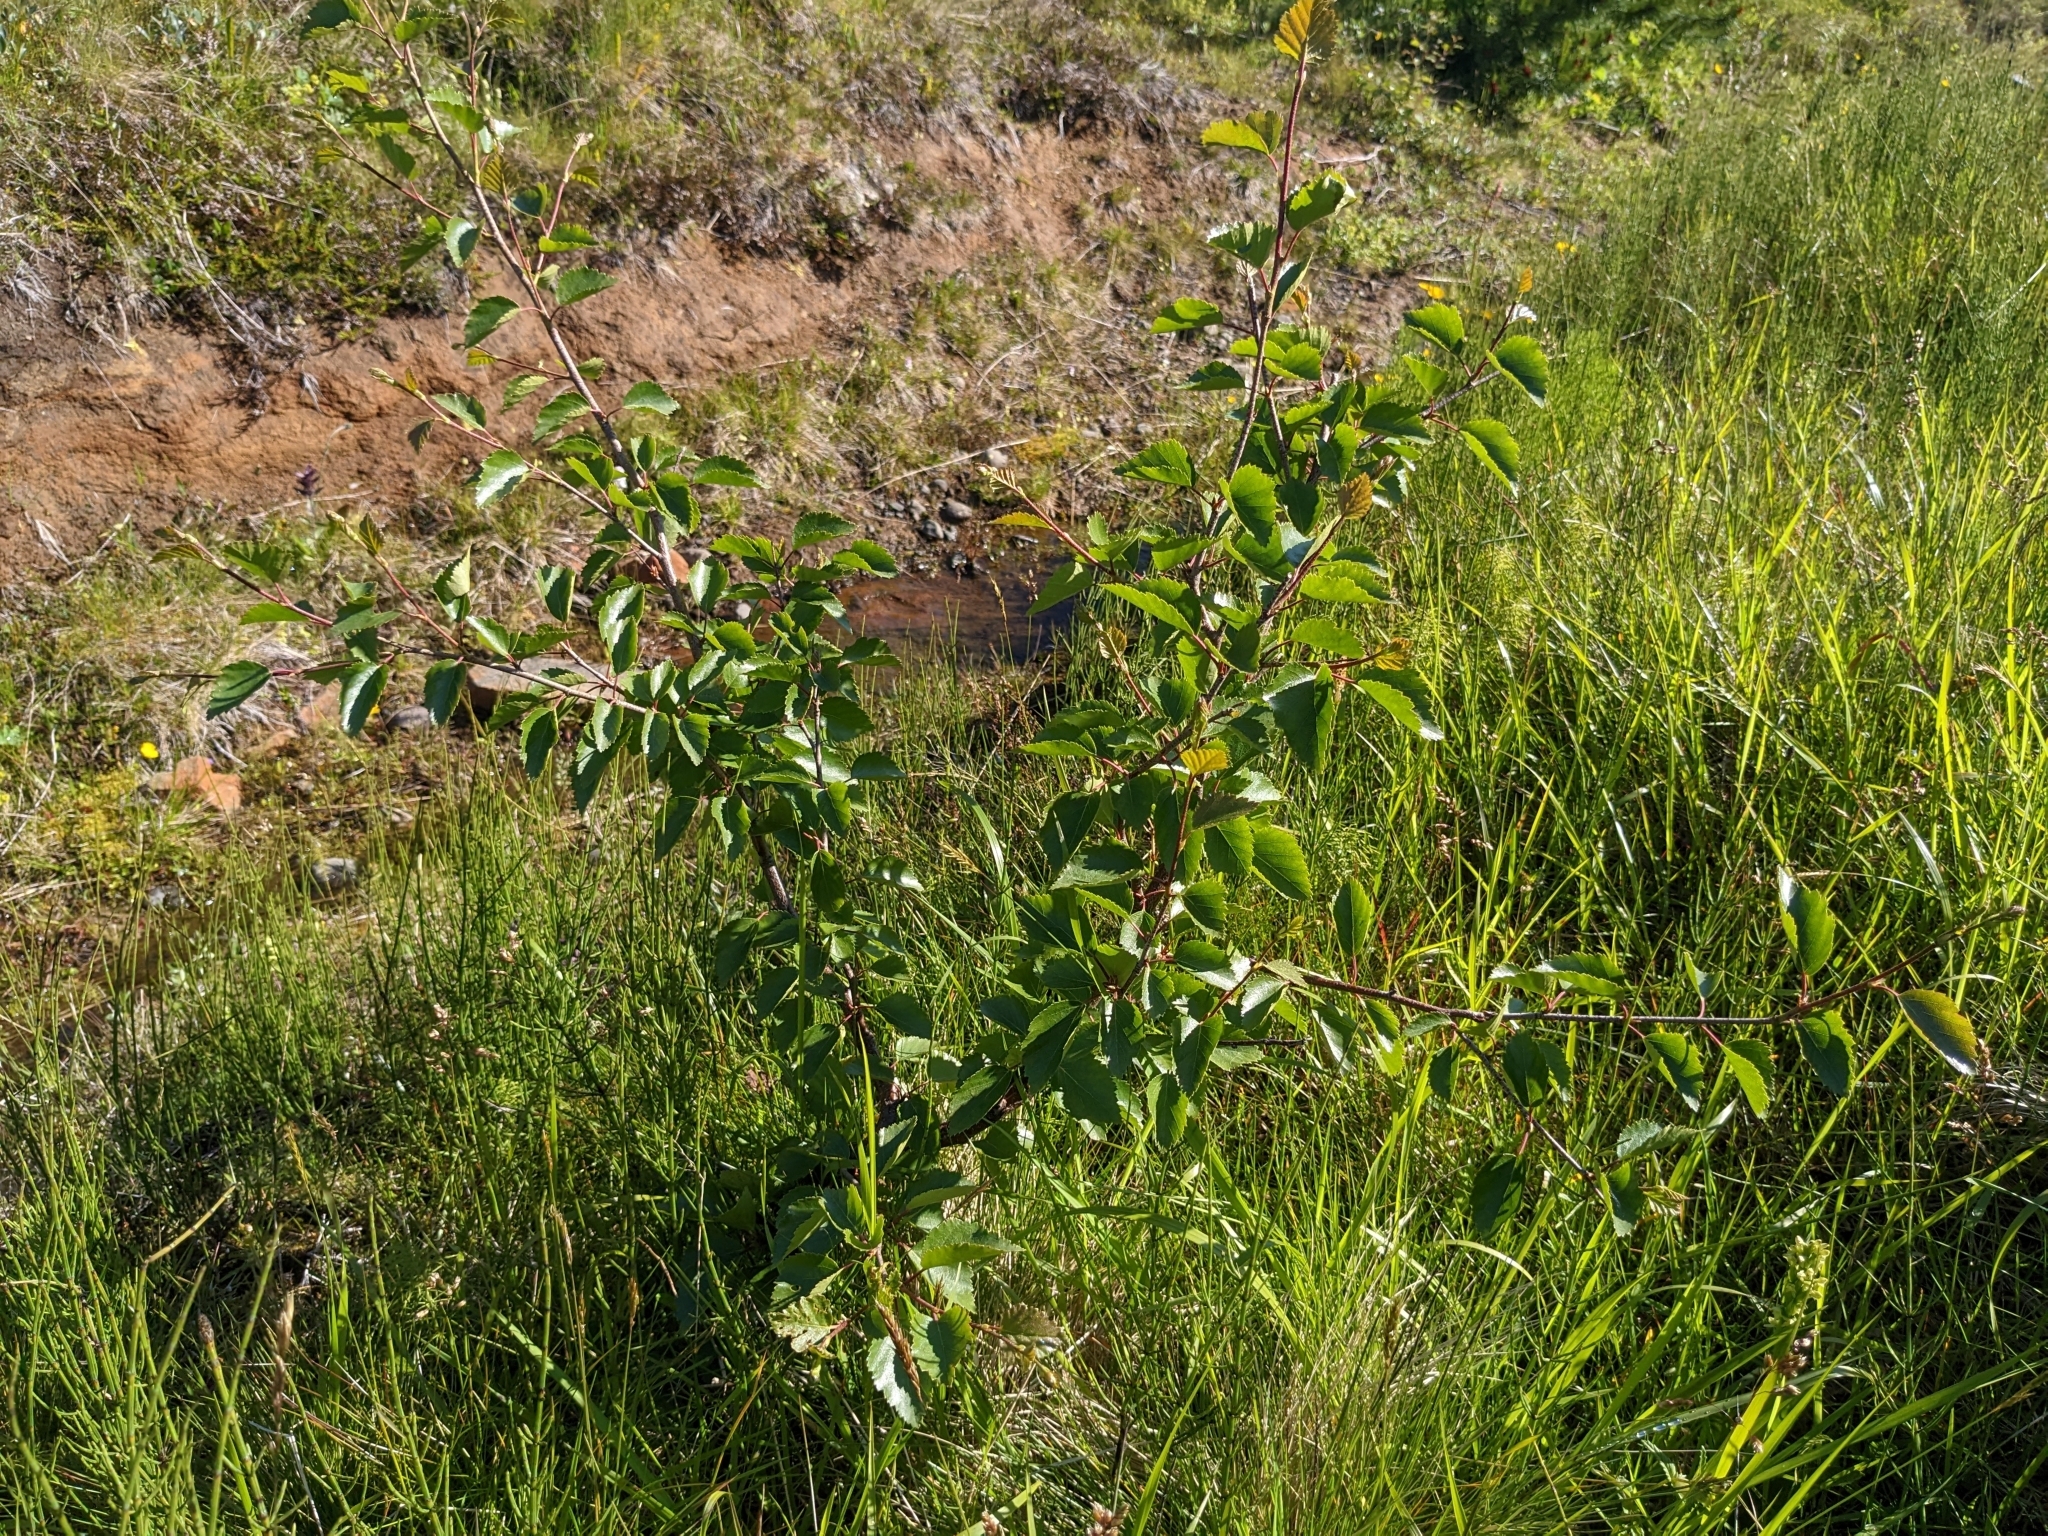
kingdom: Plantae
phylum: Tracheophyta
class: Magnoliopsida
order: Fagales
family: Betulaceae
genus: Betula
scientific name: Betula pubescens
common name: Downy birch
